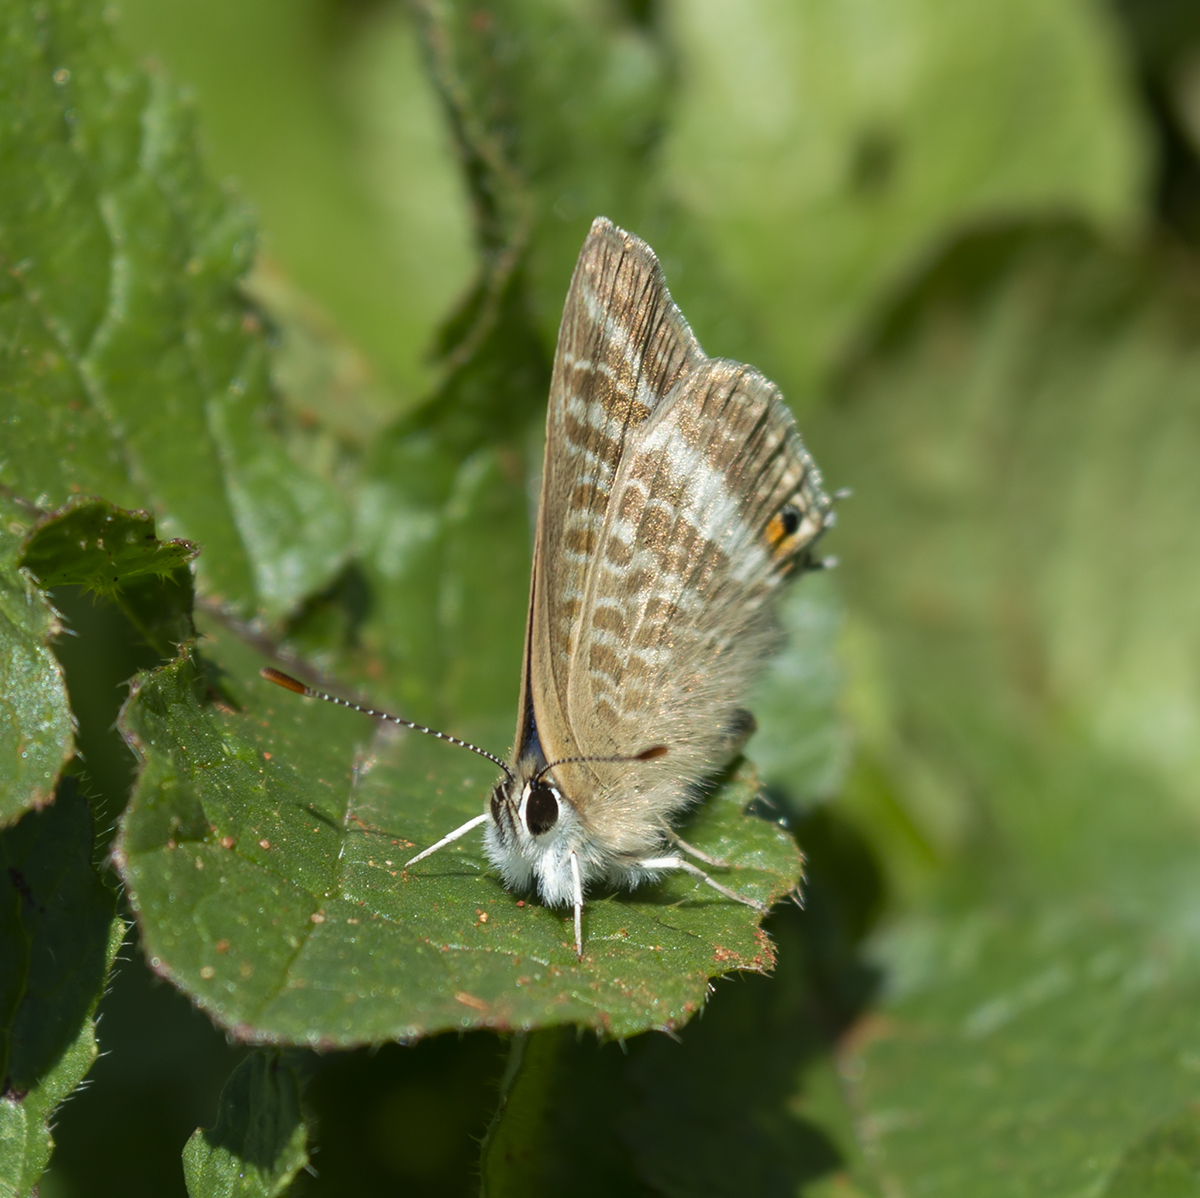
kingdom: Animalia
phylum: Arthropoda
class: Insecta
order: Lepidoptera
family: Lycaenidae
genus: Lampides
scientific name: Lampides boeticus
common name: Long-tailed blue
